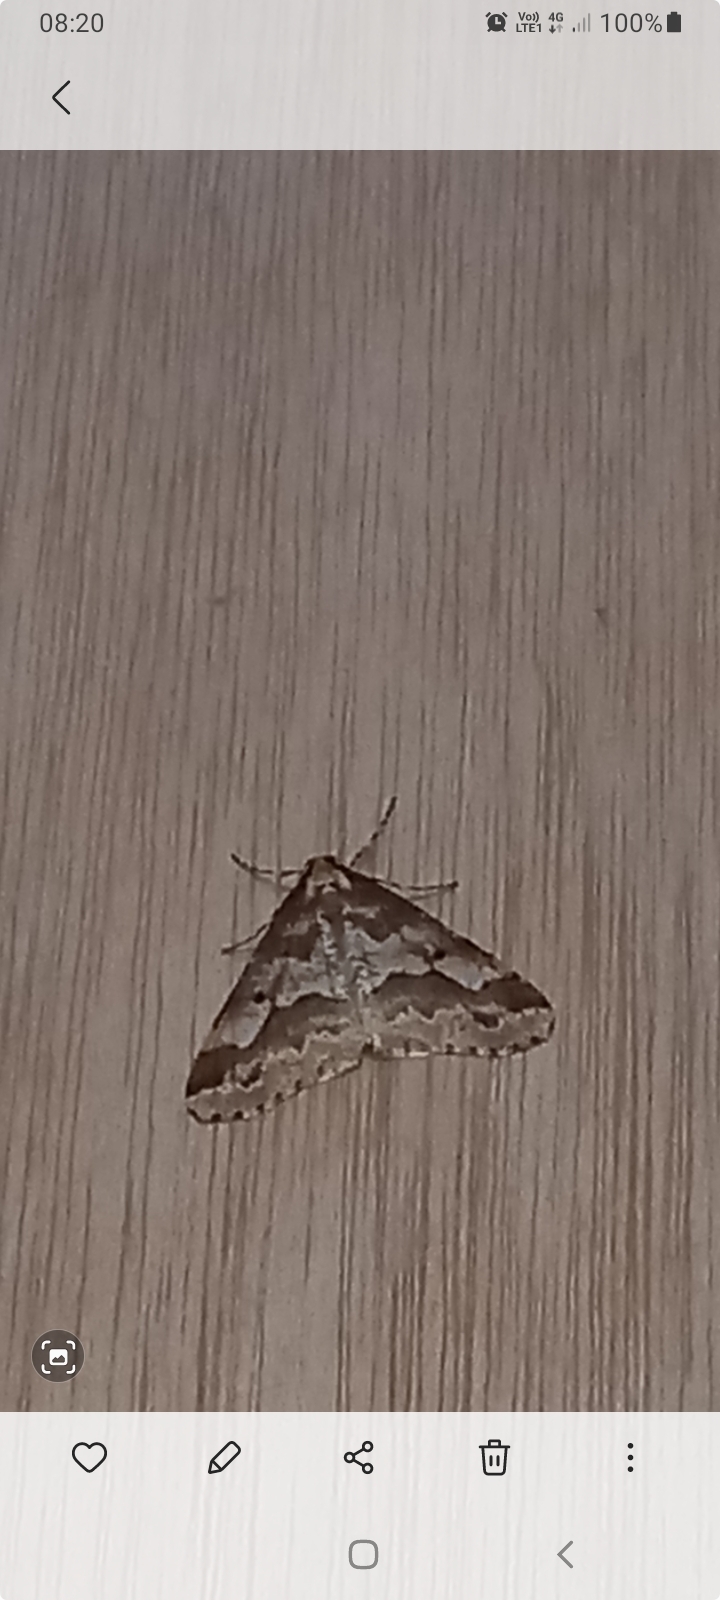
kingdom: Animalia
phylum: Arthropoda
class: Insecta
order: Lepidoptera
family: Geometridae
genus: Erannis
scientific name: Erannis defoliaria
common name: Mottled umber
